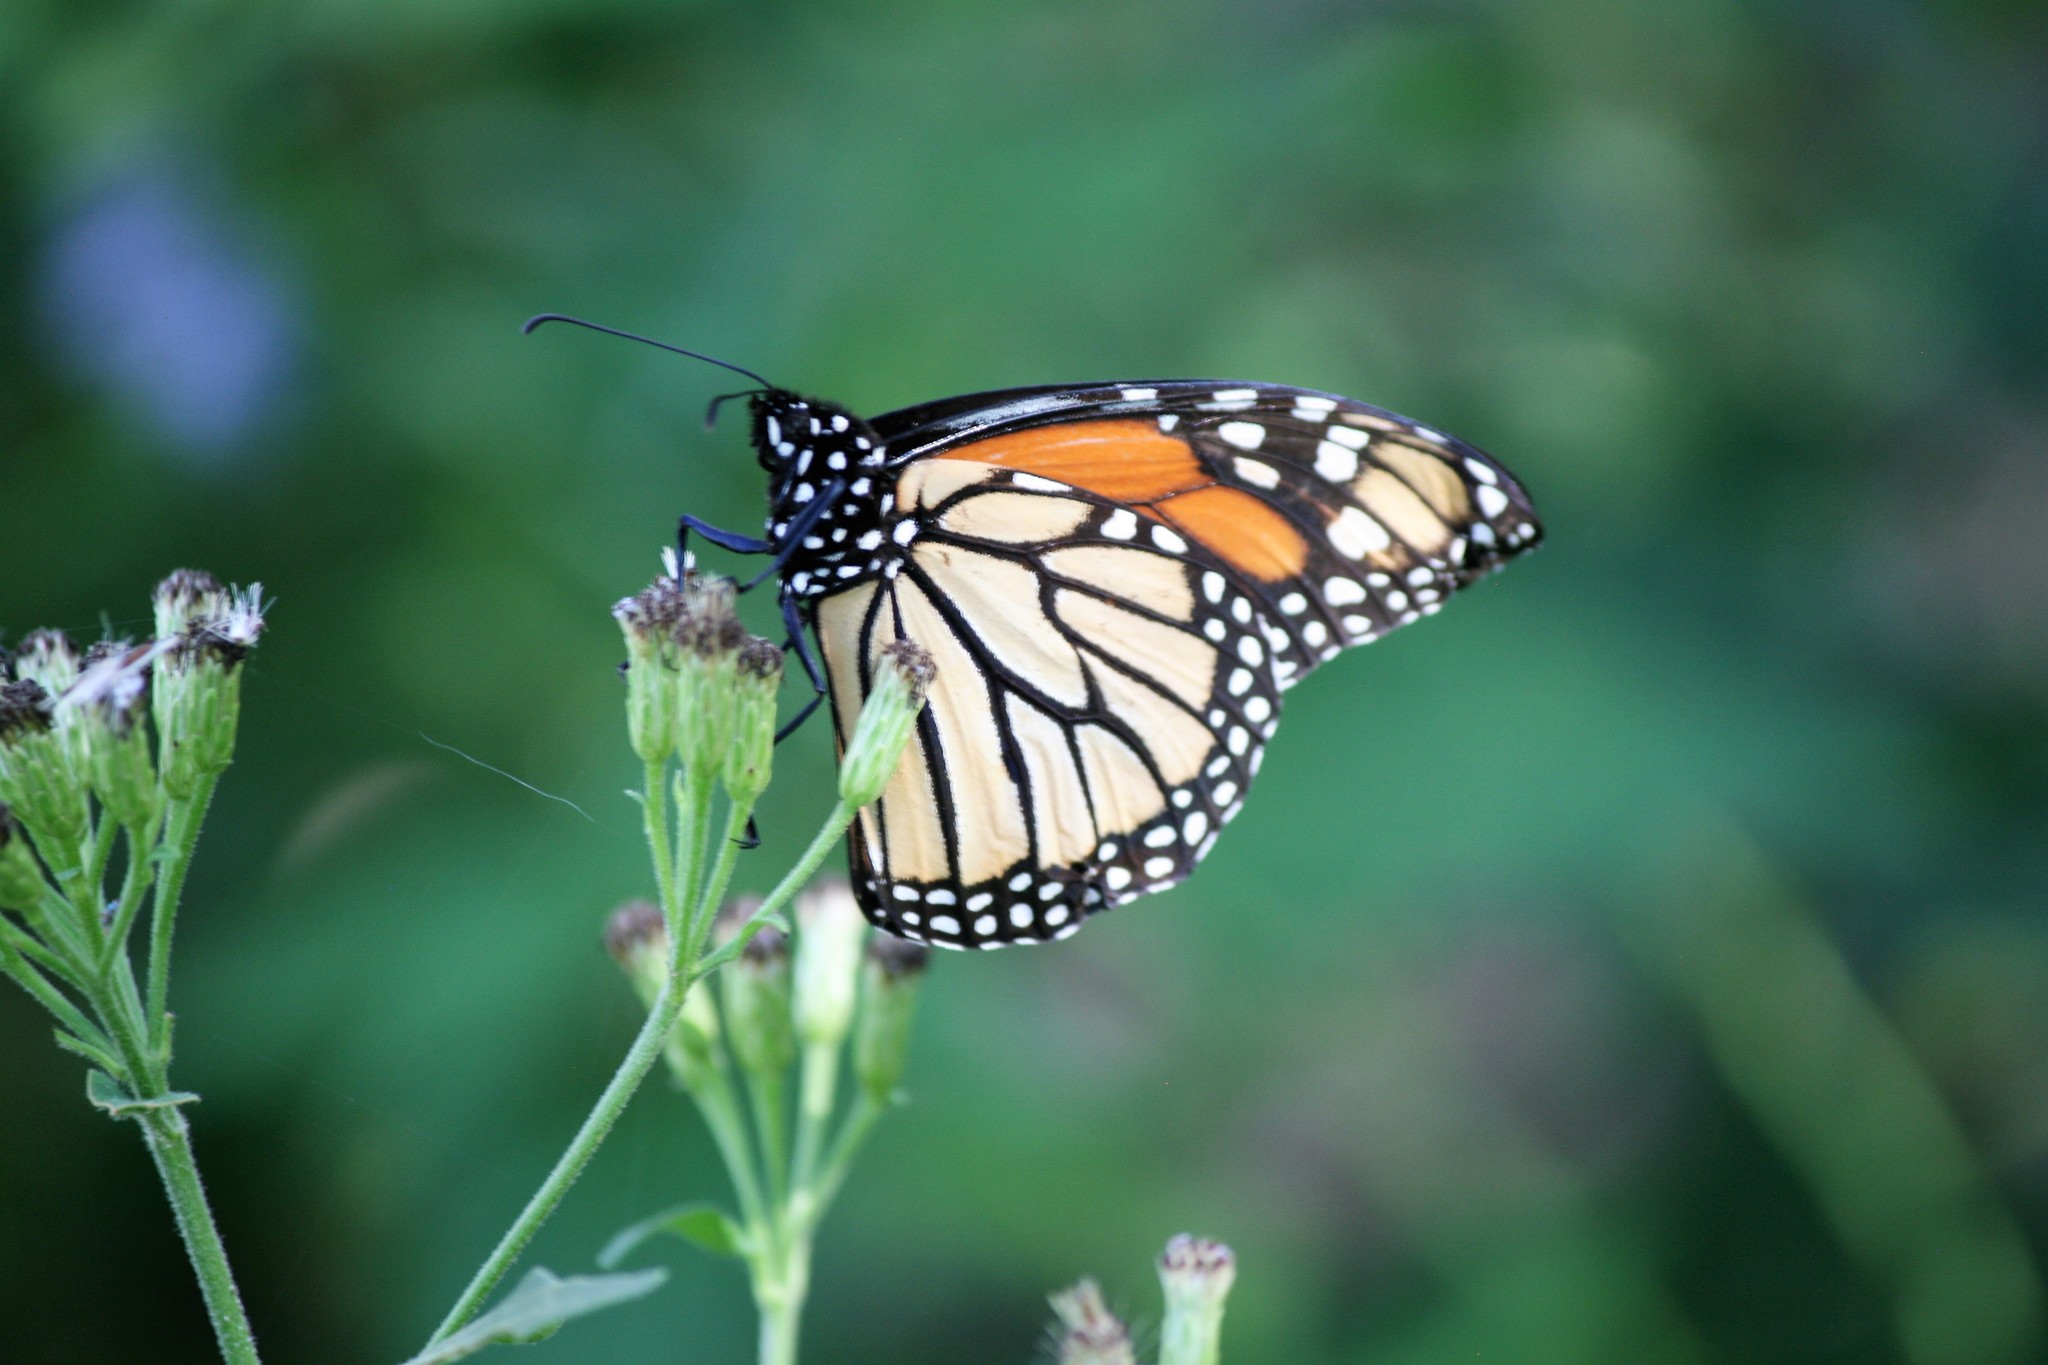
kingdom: Animalia
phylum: Arthropoda
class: Insecta
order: Lepidoptera
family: Nymphalidae
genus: Danaus
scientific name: Danaus plexippus
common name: Monarch
